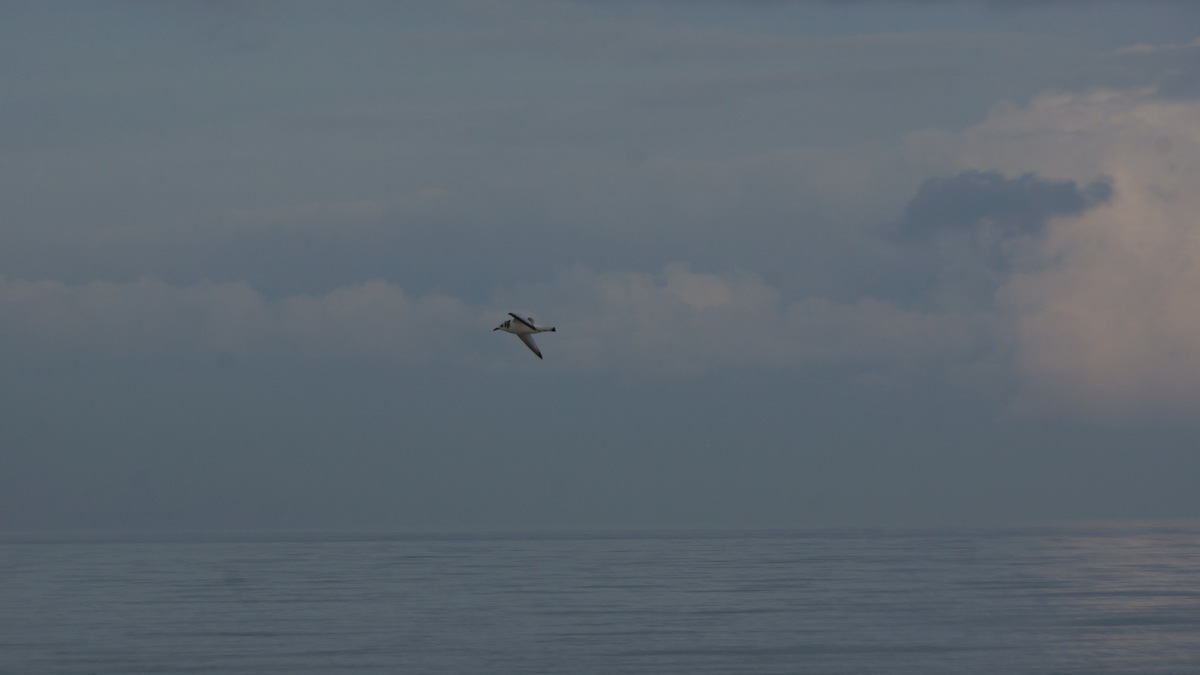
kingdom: Animalia
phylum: Chordata
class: Aves
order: Charadriiformes
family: Laridae
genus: Rissa
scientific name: Rissa tridactyla
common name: Black-legged kittiwake
